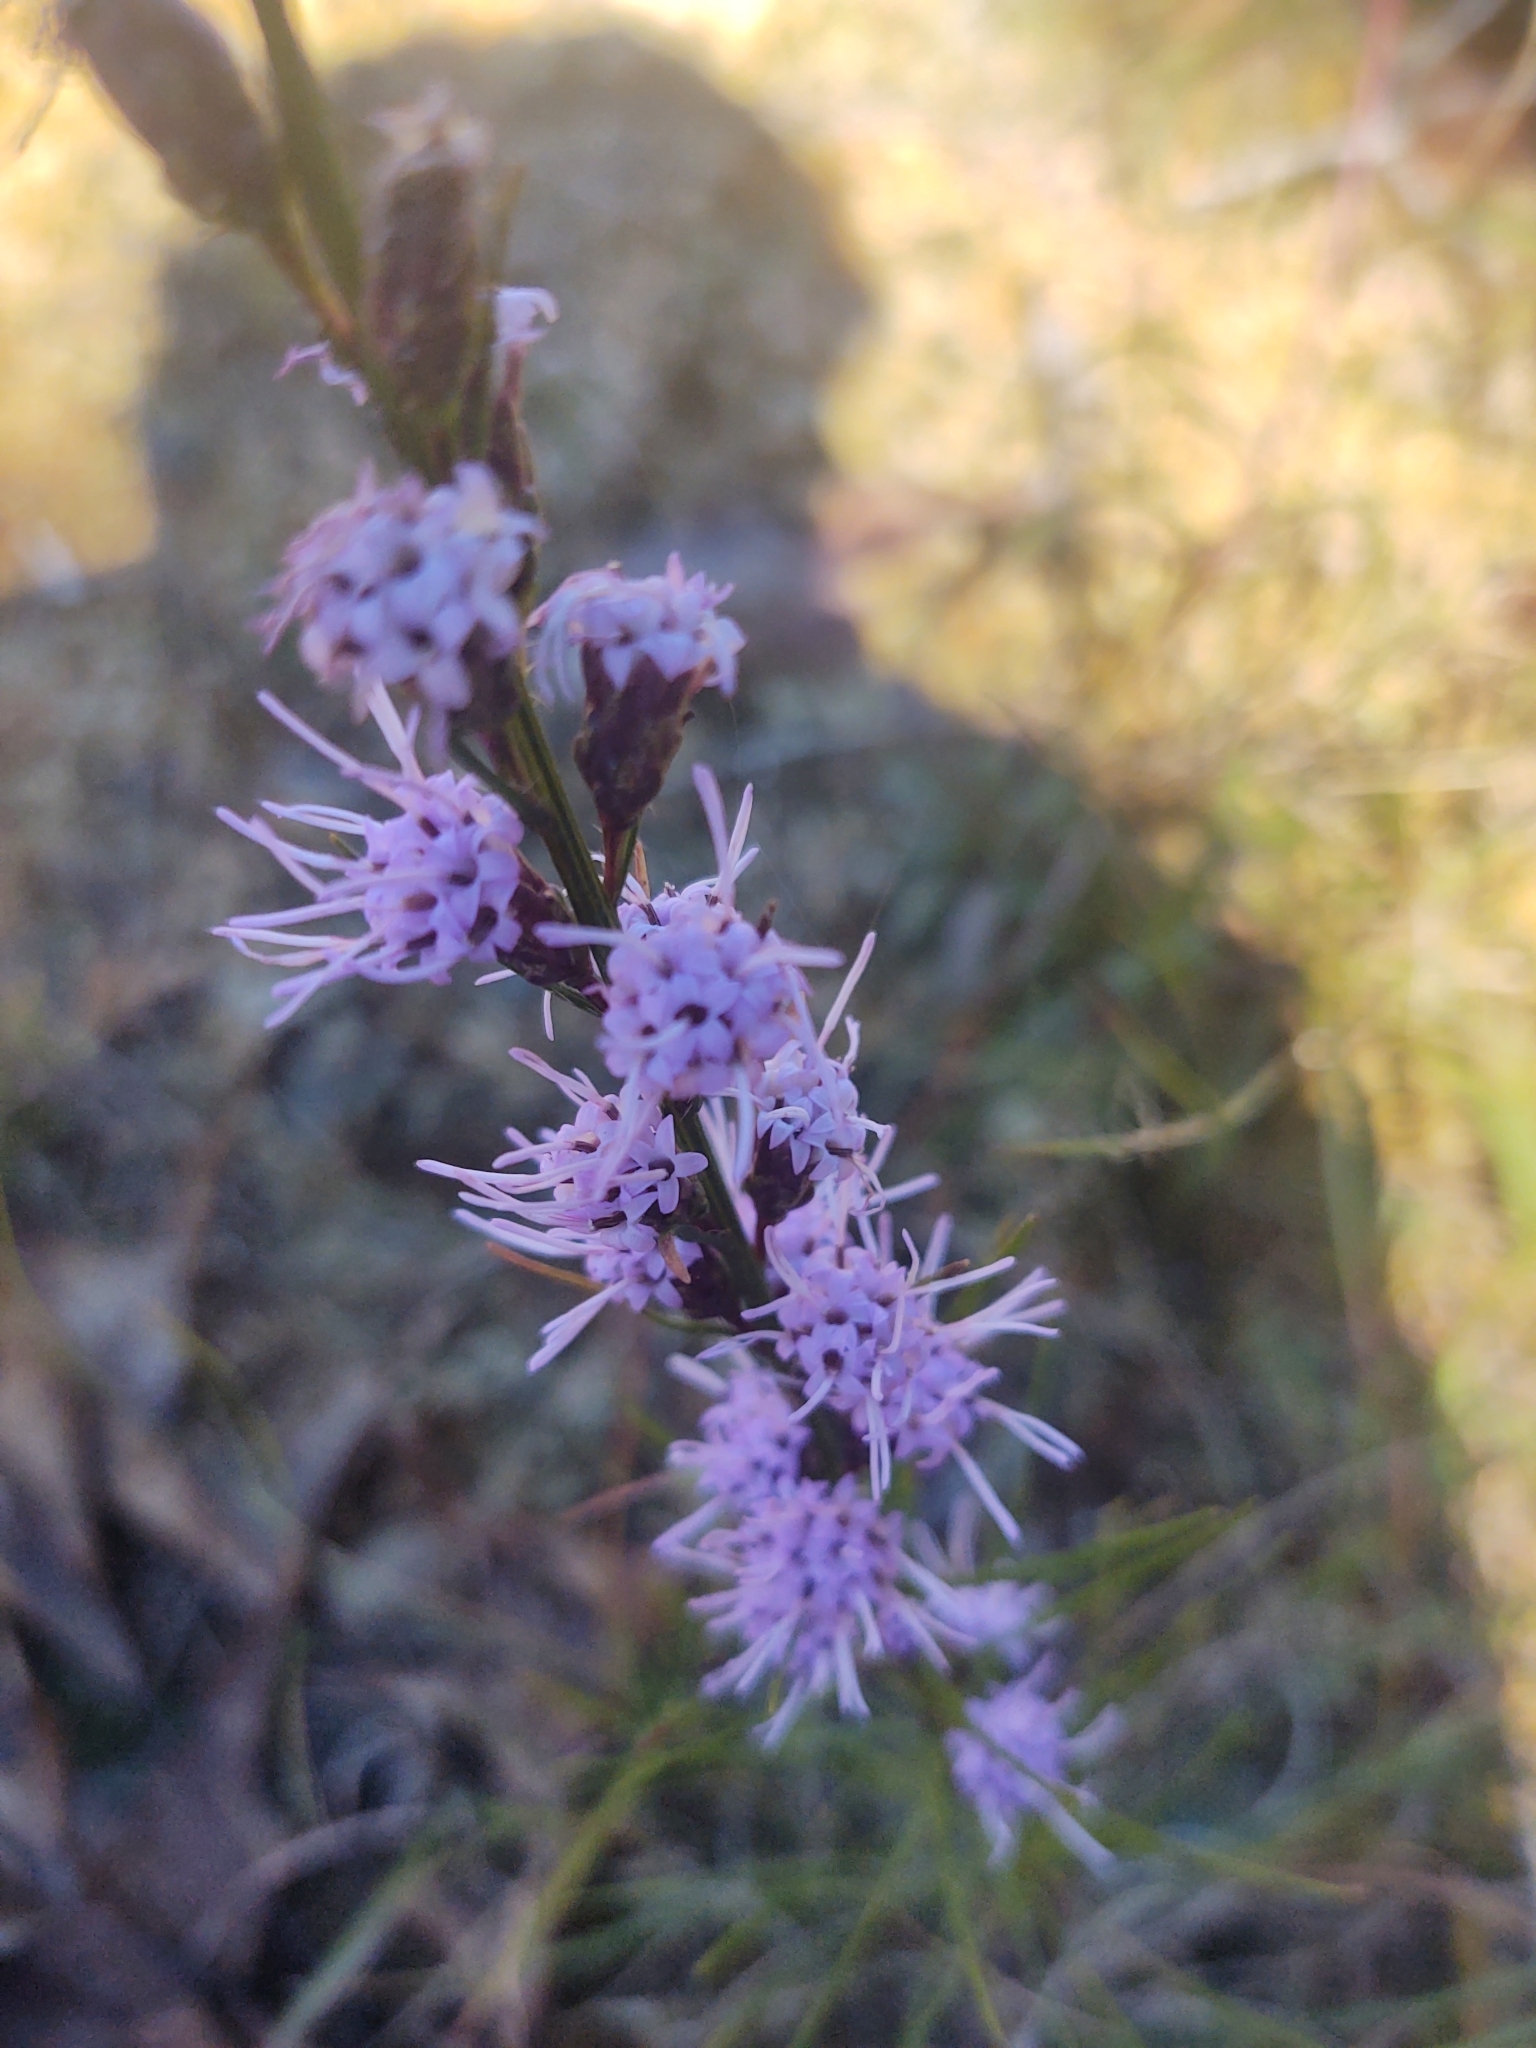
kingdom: Plantae
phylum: Tracheophyta
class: Magnoliopsida
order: Asterales
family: Asteraceae
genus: Liatris
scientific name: Liatris pilosa
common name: Grass-leaf gayfeather
